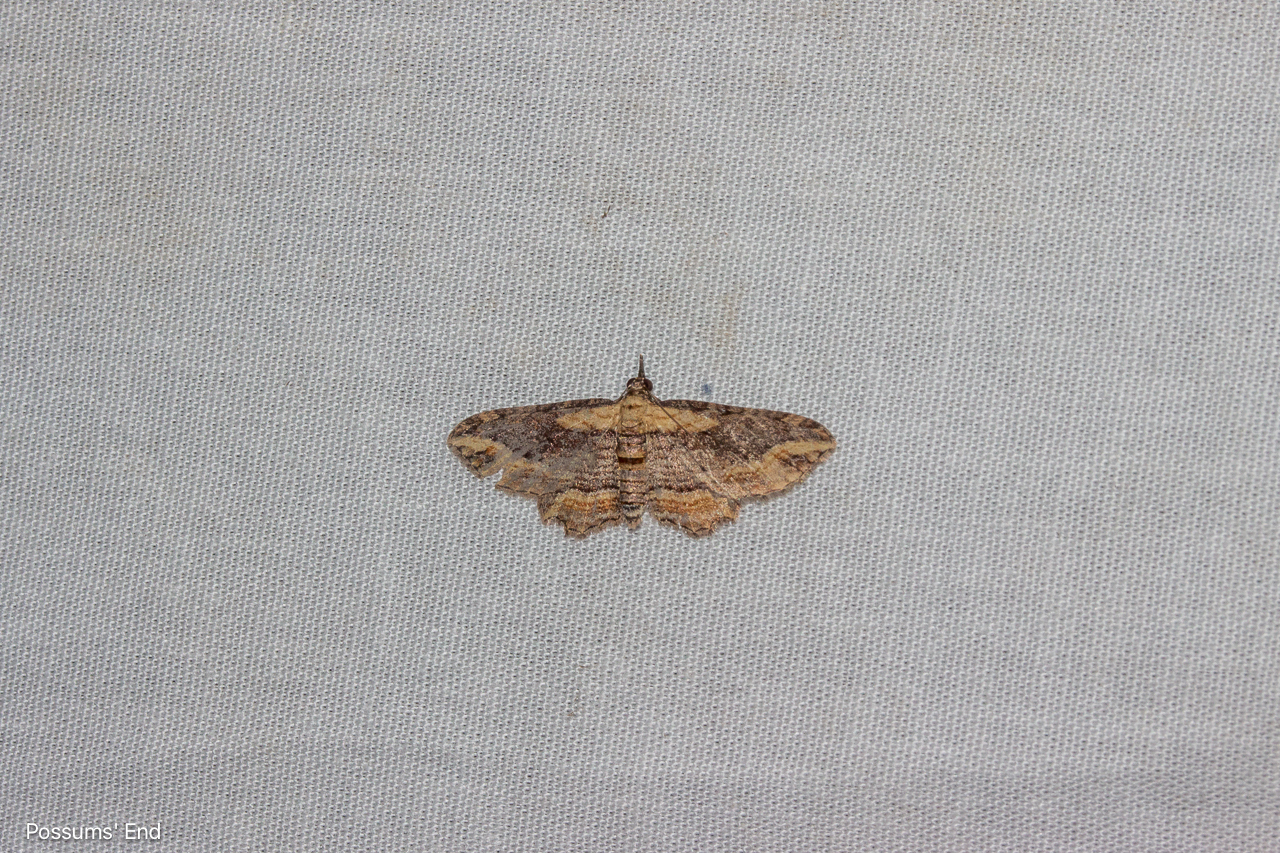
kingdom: Animalia
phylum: Arthropoda
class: Insecta
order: Lepidoptera
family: Geometridae
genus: Chloroclystis
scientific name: Chloroclystis filata
